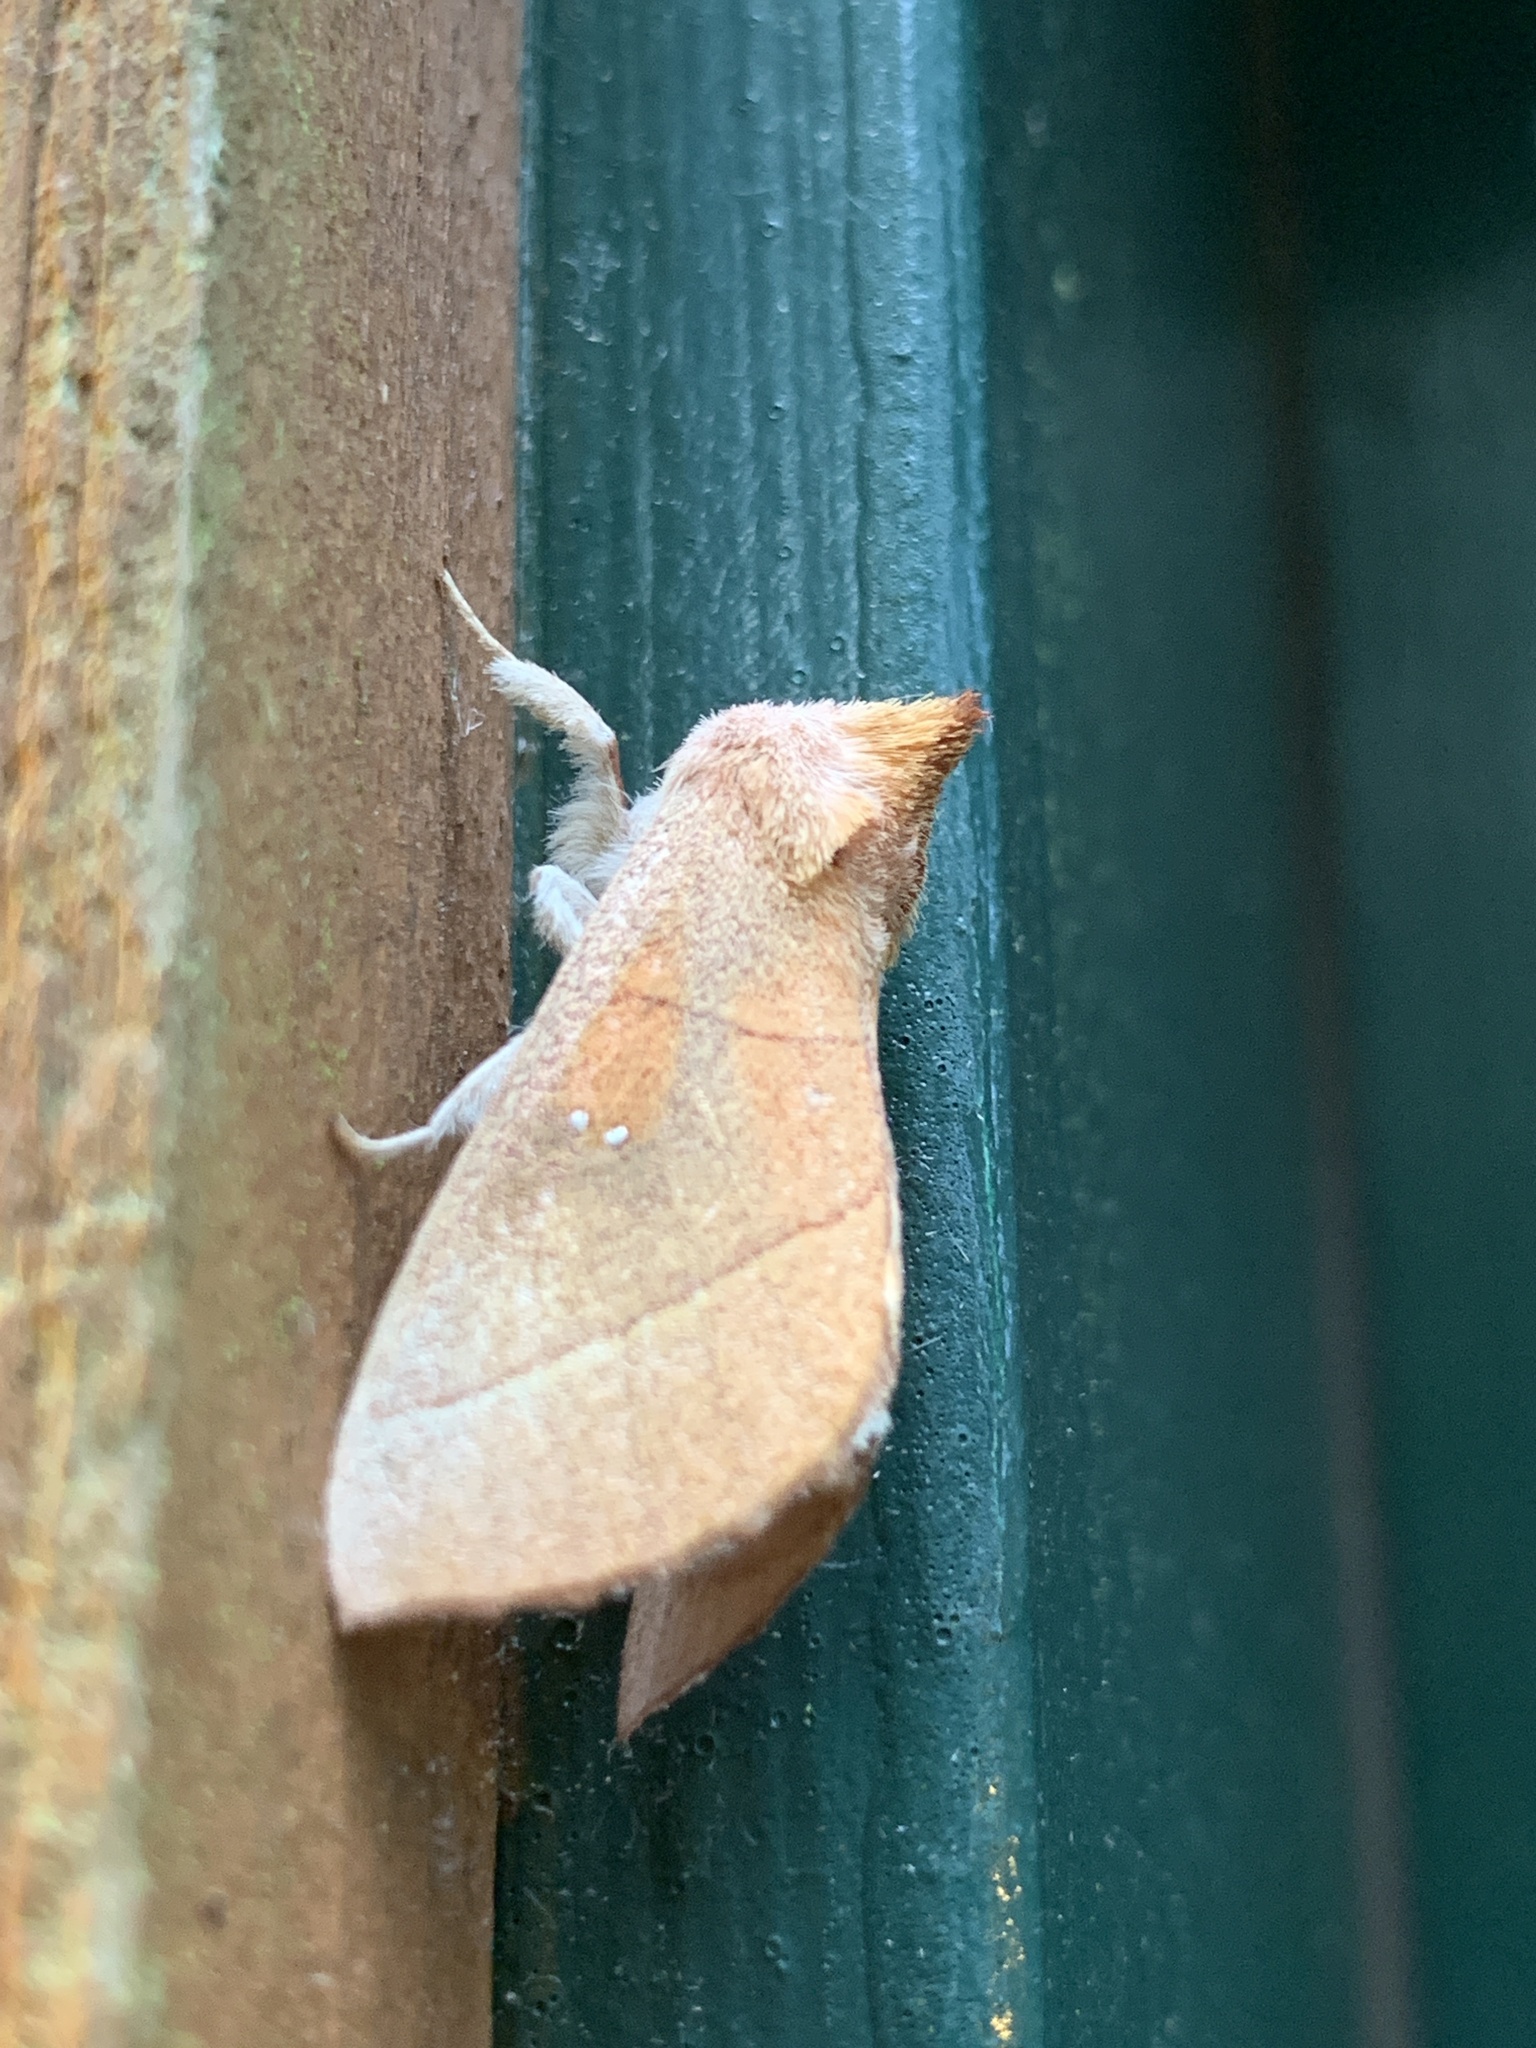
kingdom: Animalia
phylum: Arthropoda
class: Insecta
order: Lepidoptera
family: Notodontidae
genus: Nadata
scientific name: Nadata gibbosa
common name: White-dotted prominent
